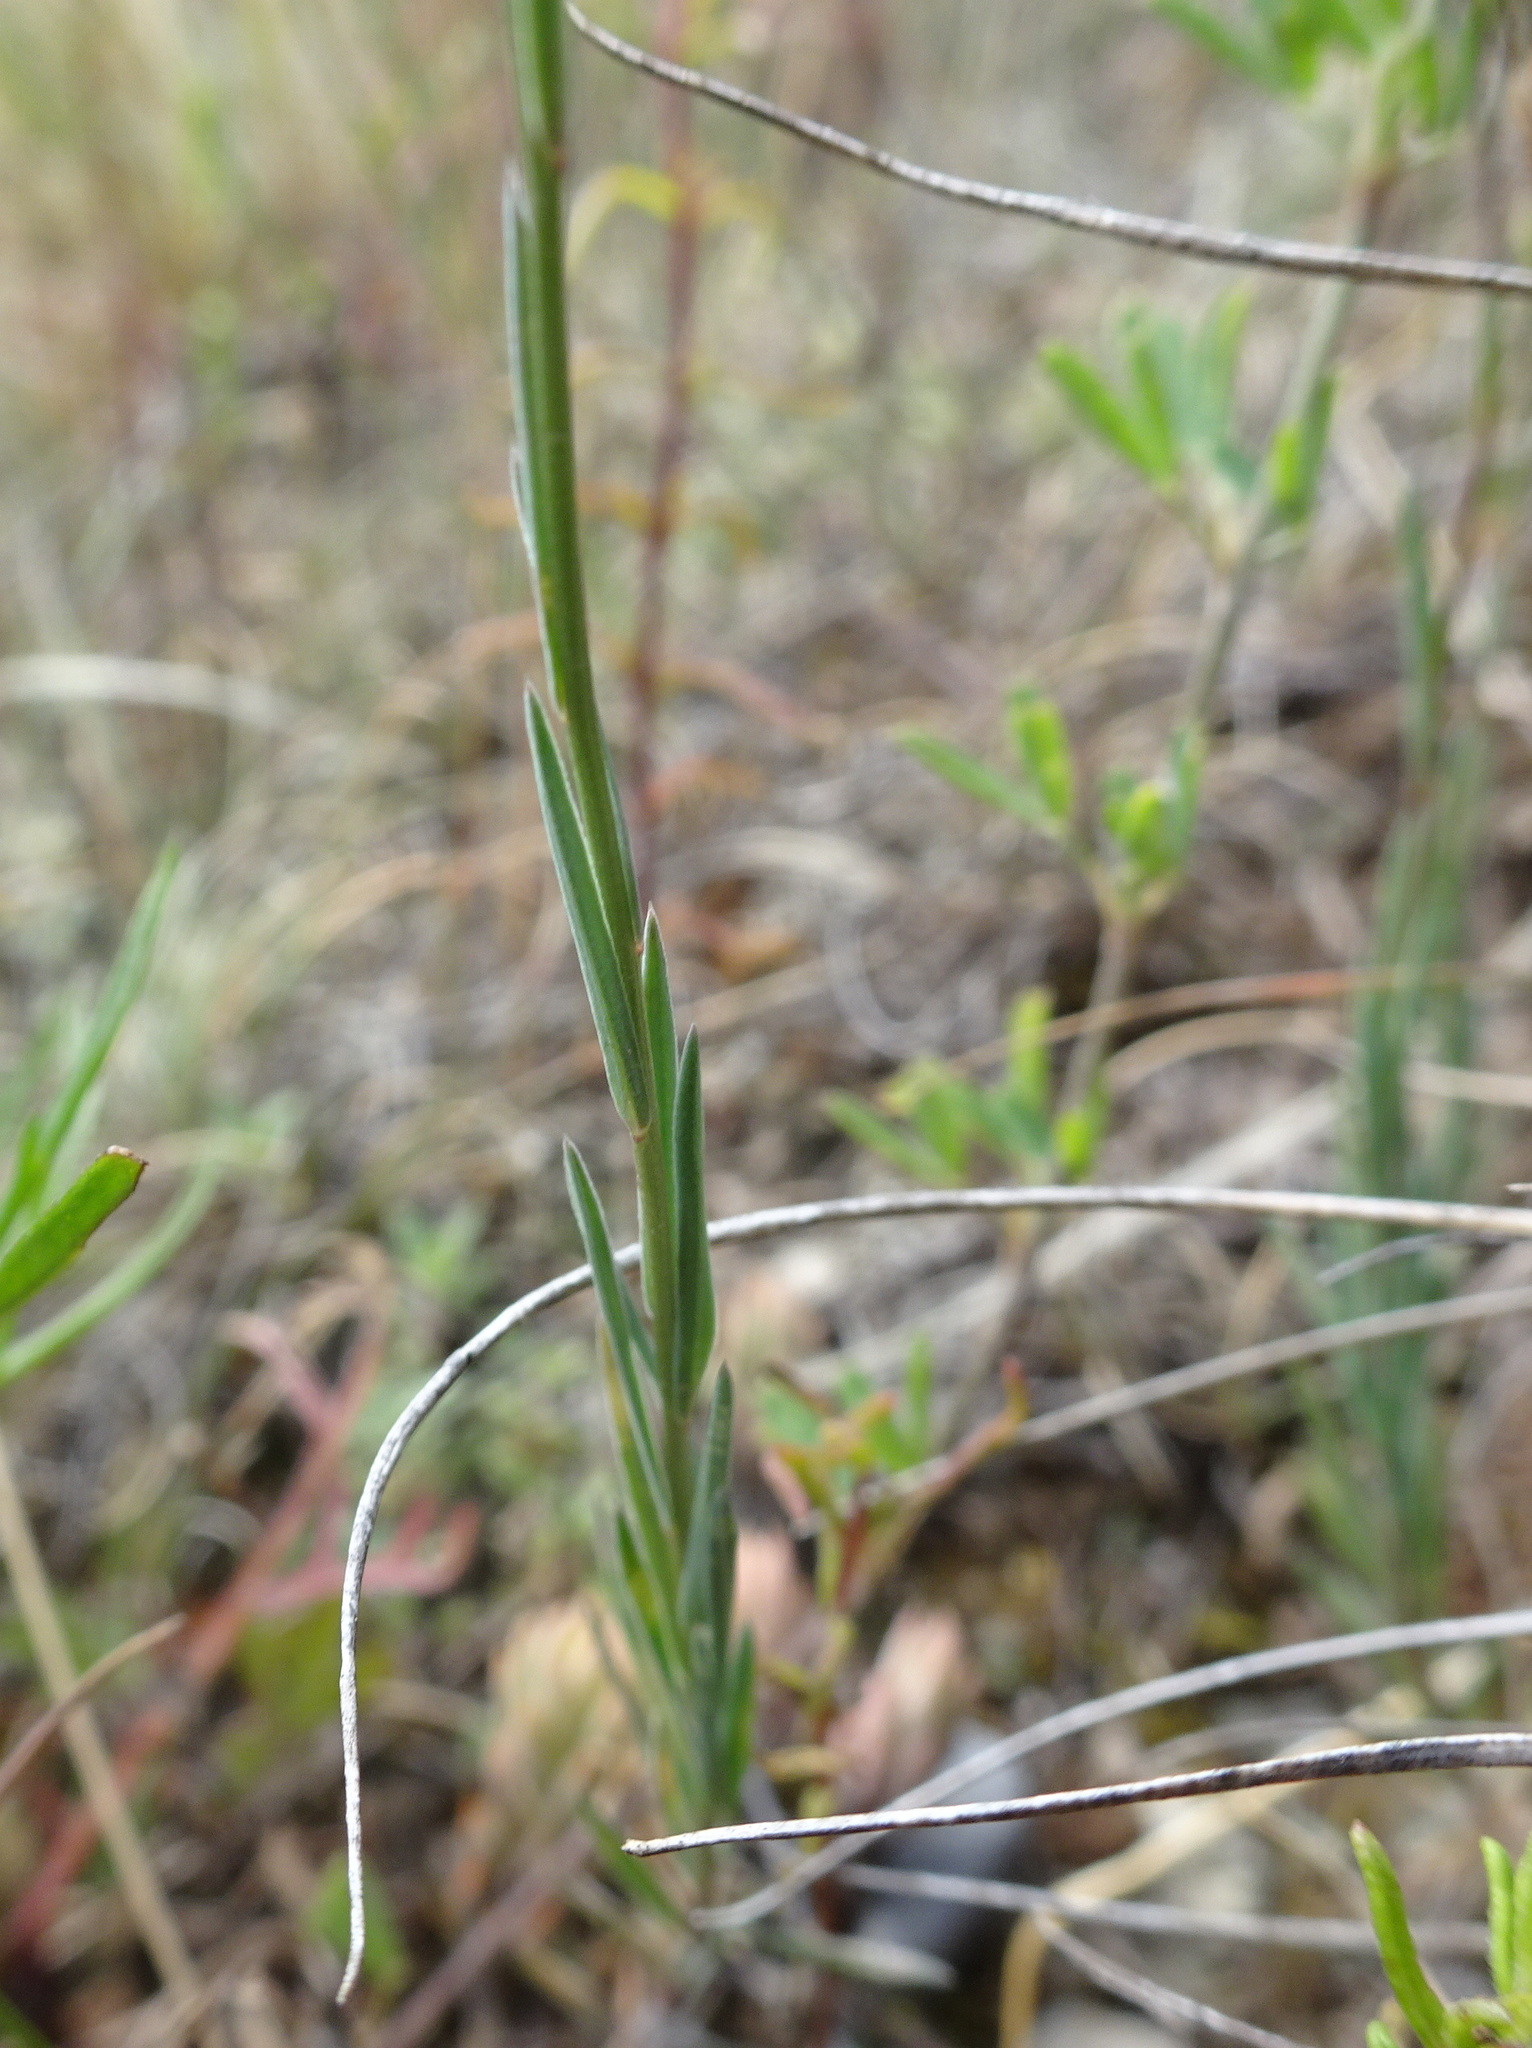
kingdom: Plantae
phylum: Tracheophyta
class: Magnoliopsida
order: Malpighiales
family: Linaceae
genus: Linum
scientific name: Linum tenuifolium
